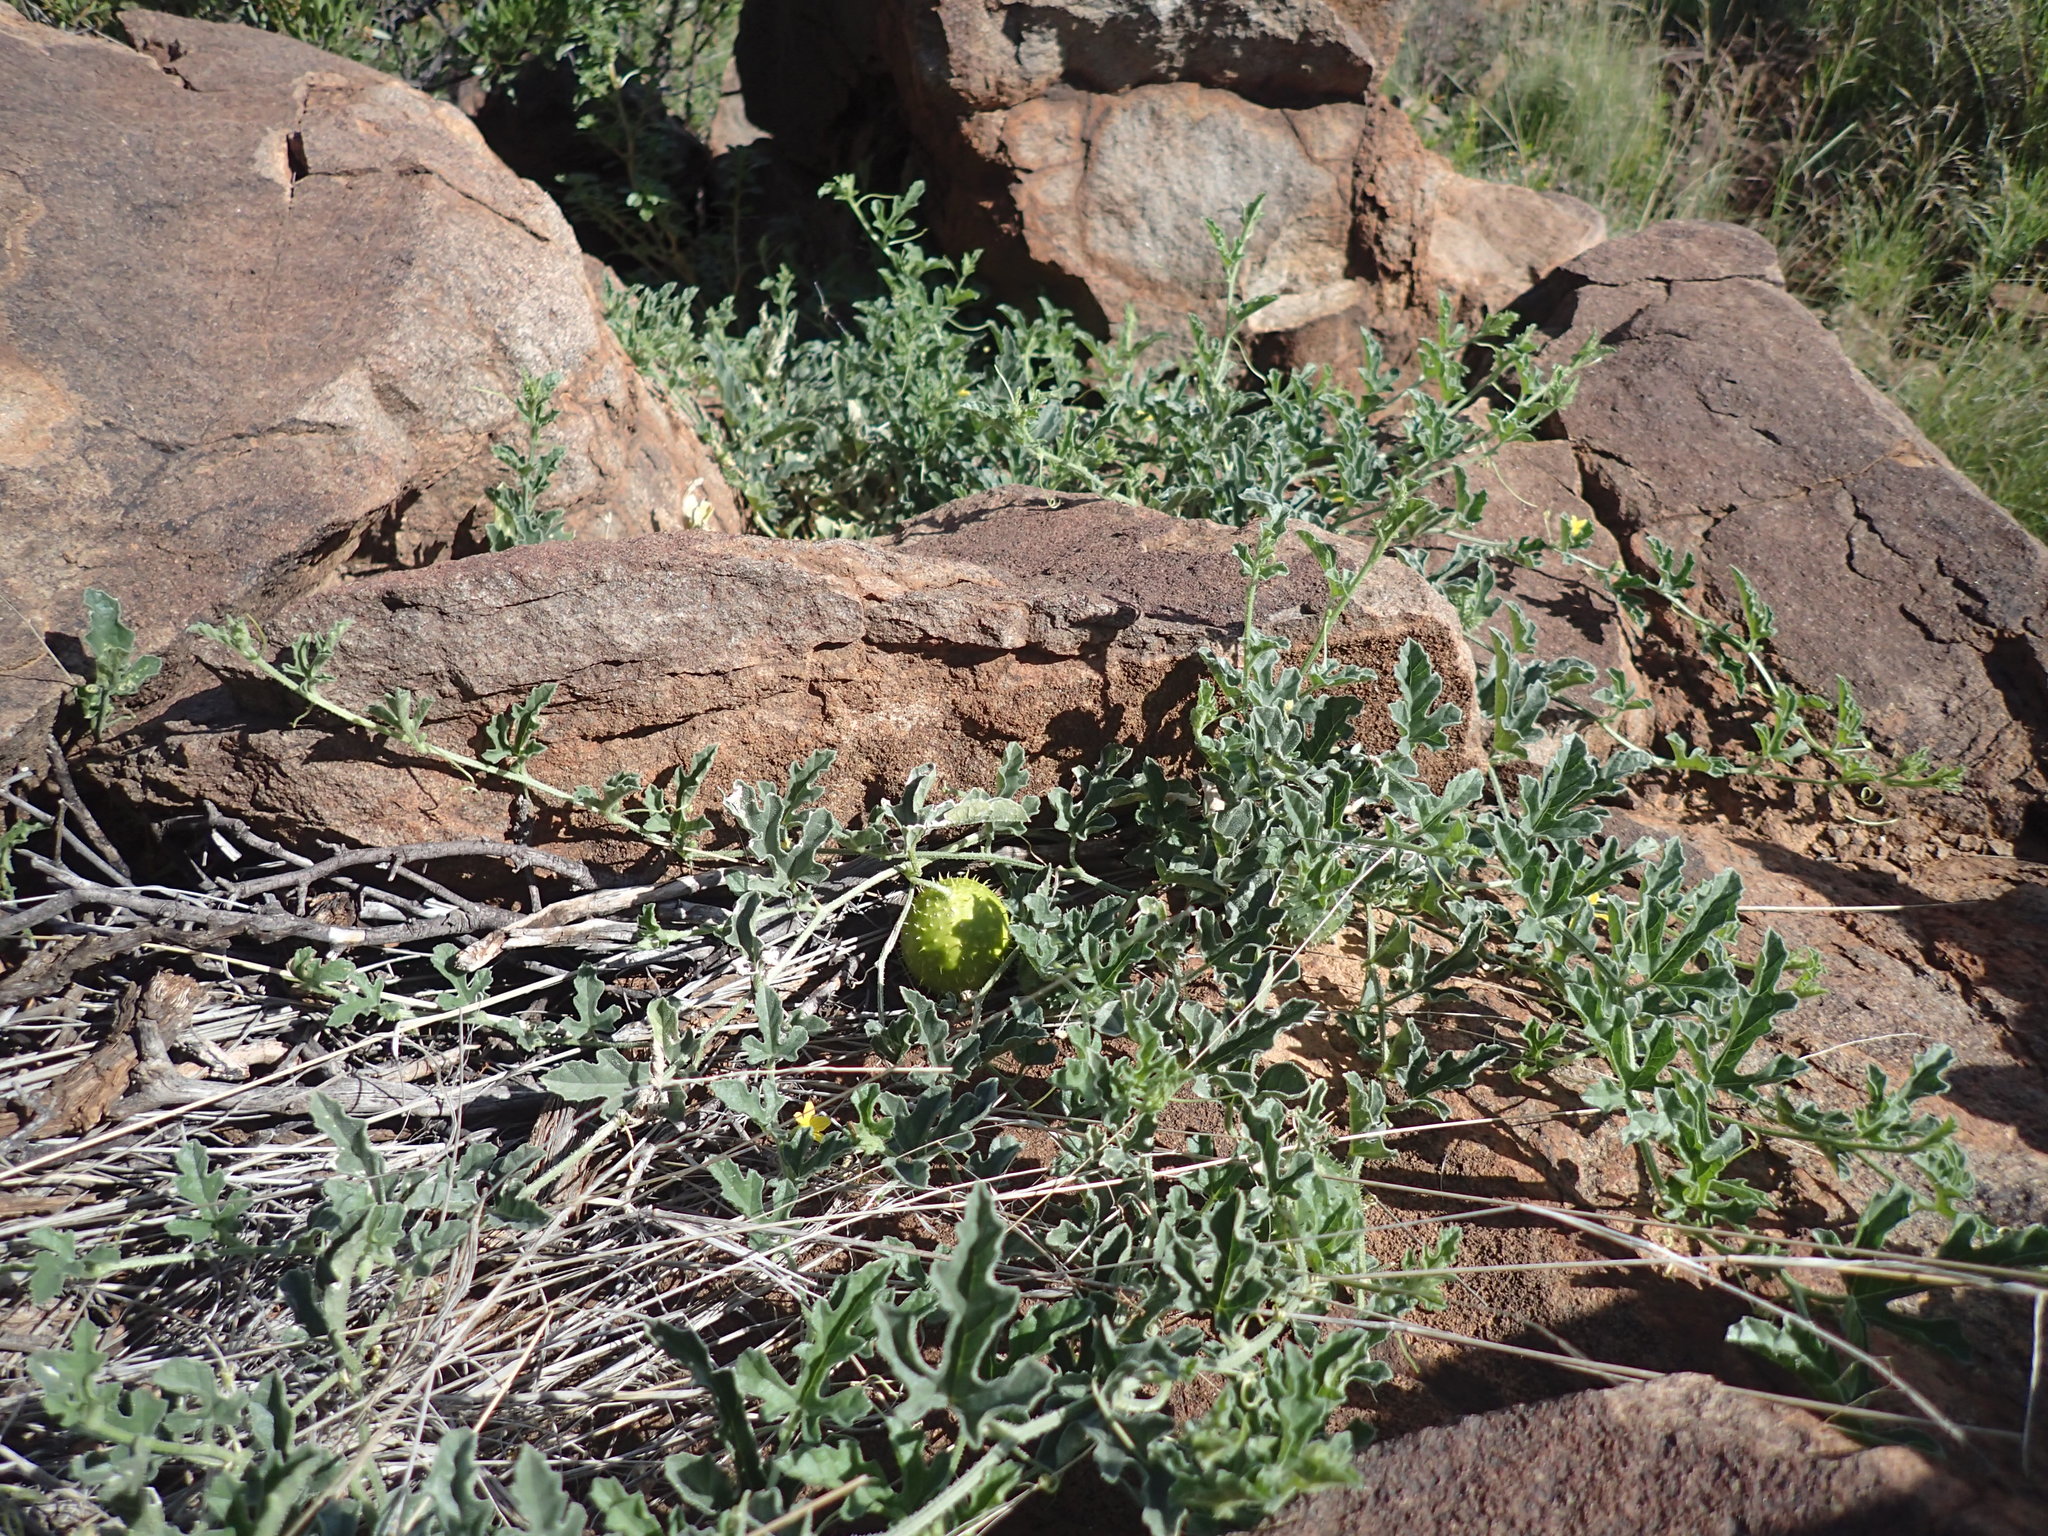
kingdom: Plantae
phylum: Tracheophyta
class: Magnoliopsida
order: Cucurbitales
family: Cucurbitaceae
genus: Cucumis
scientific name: Cucumis myriocarpus
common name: Gooseberry cucumber
